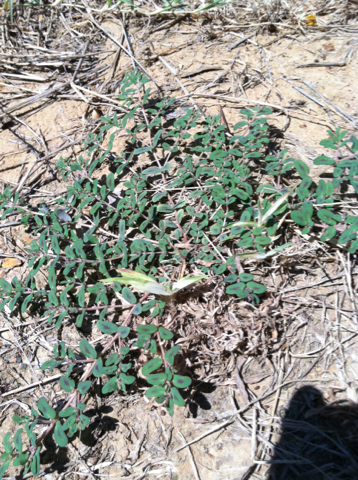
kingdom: Plantae
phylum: Tracheophyta
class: Magnoliopsida
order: Malpighiales
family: Euphorbiaceae
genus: Euphorbia
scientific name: Euphorbia maculata
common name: Spotted spurge
